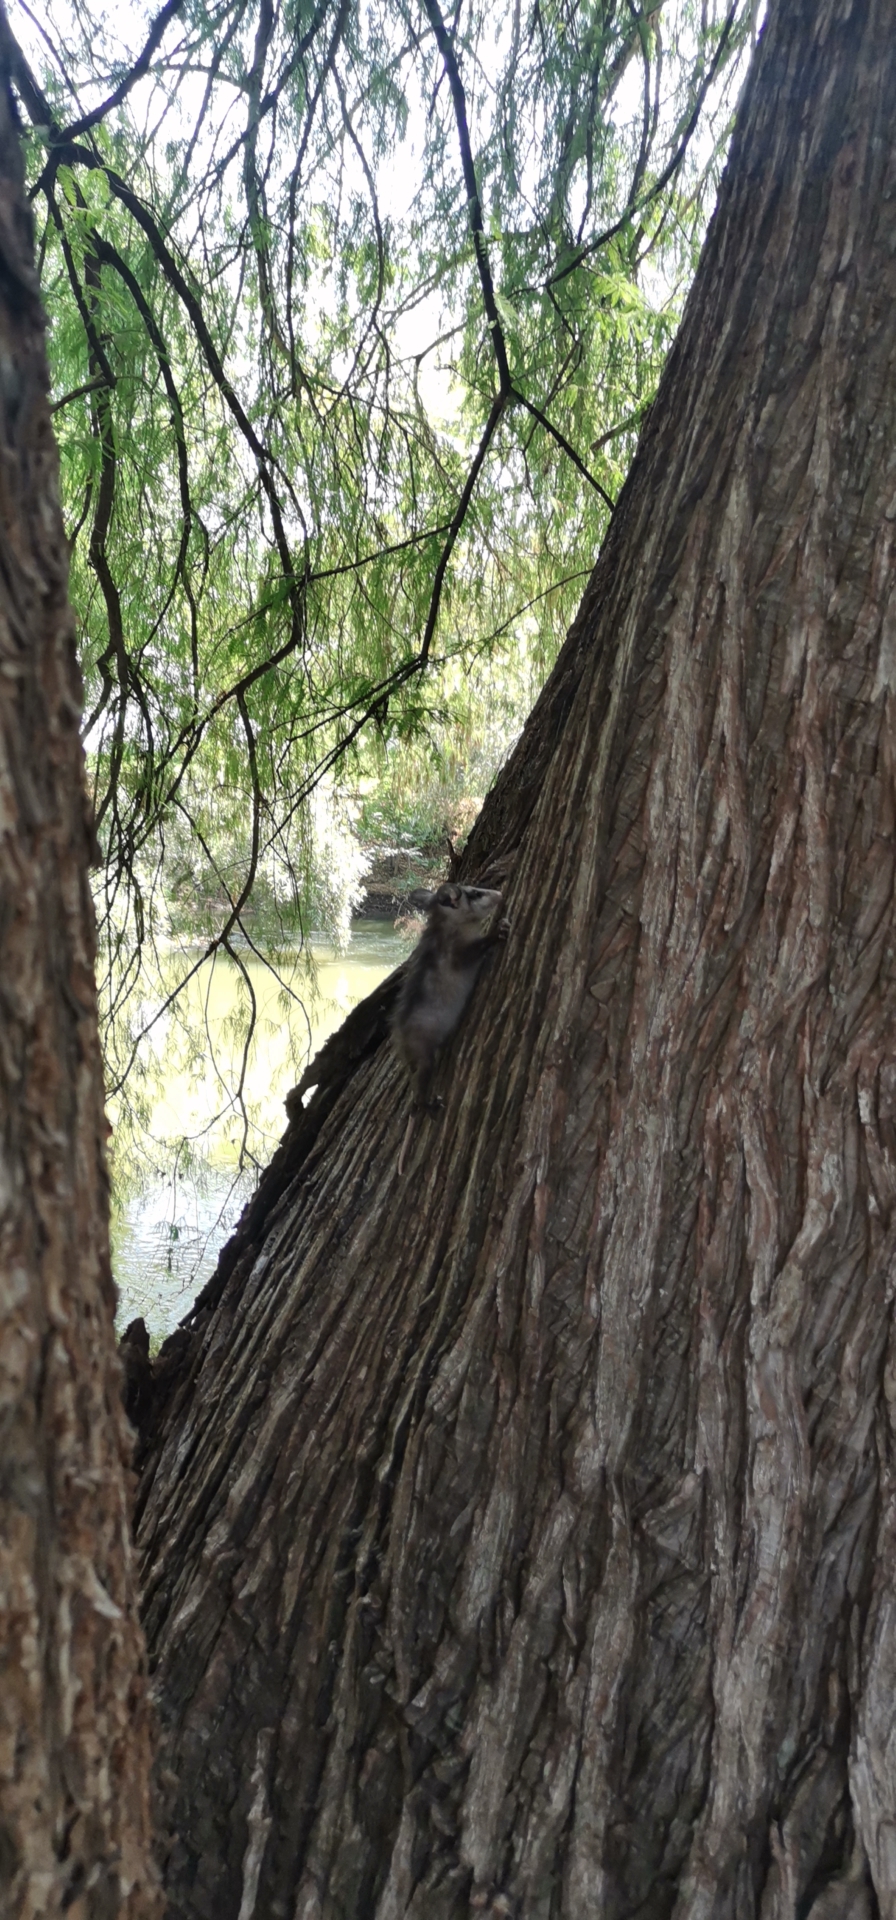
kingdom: Animalia
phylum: Chordata
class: Mammalia
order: Didelphimorphia
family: Didelphidae
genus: Didelphis
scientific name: Didelphis virginiana
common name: Virginia opossum
